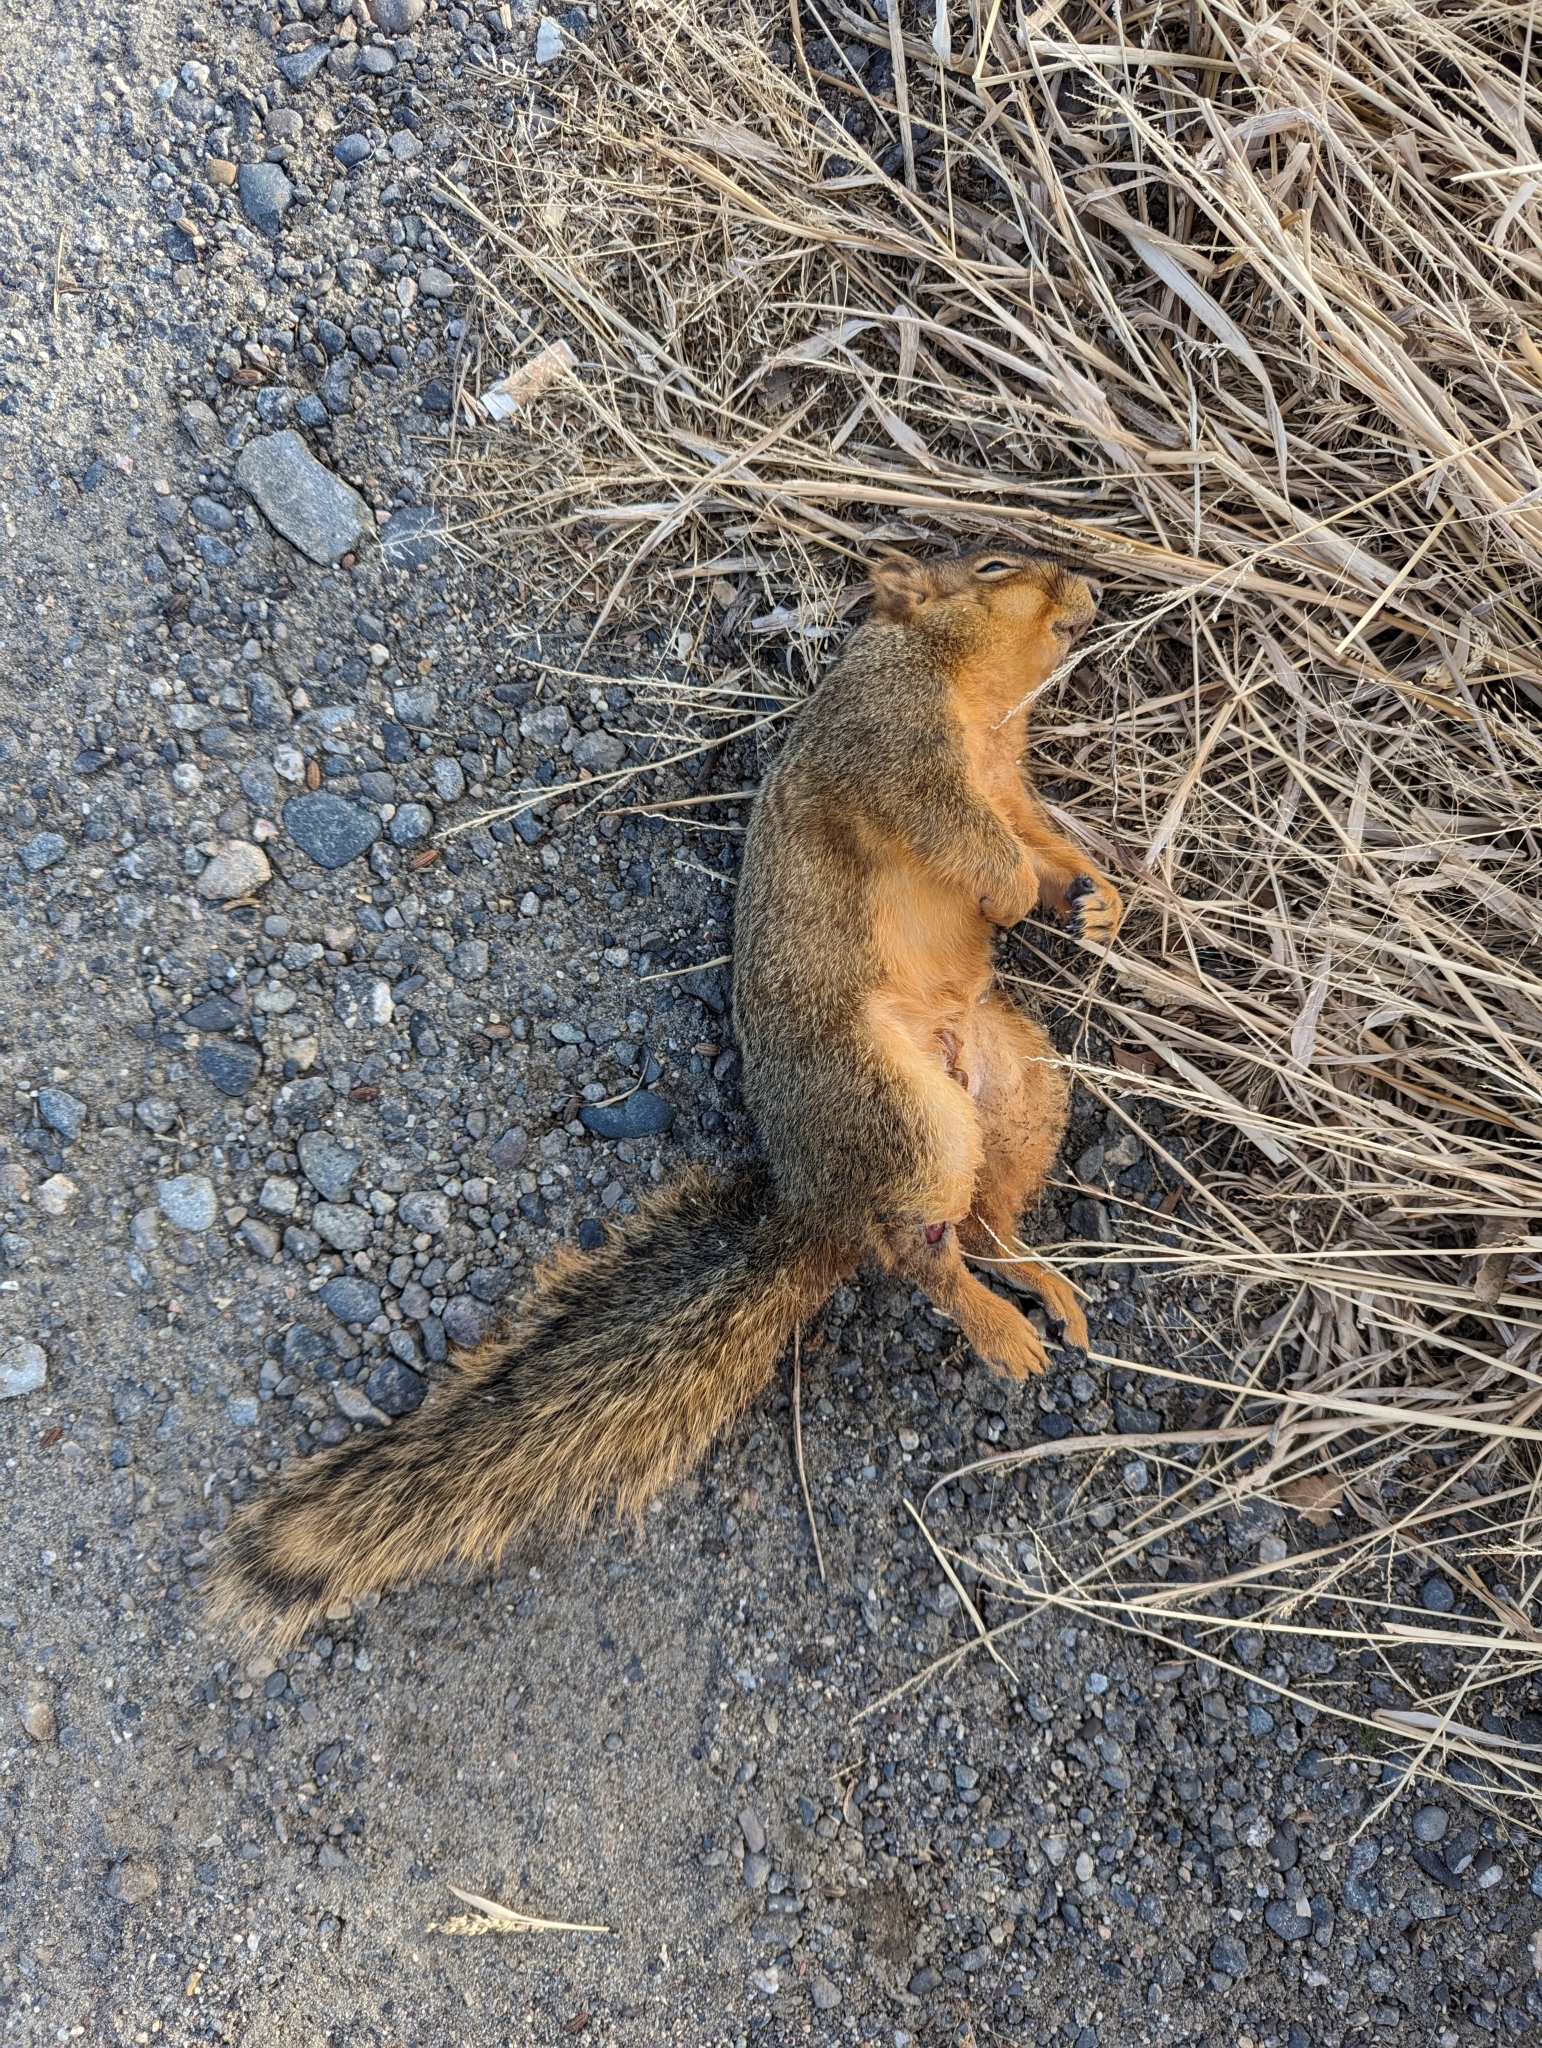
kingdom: Animalia
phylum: Chordata
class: Mammalia
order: Rodentia
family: Sciuridae
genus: Sciurus
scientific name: Sciurus niger
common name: Fox squirrel
